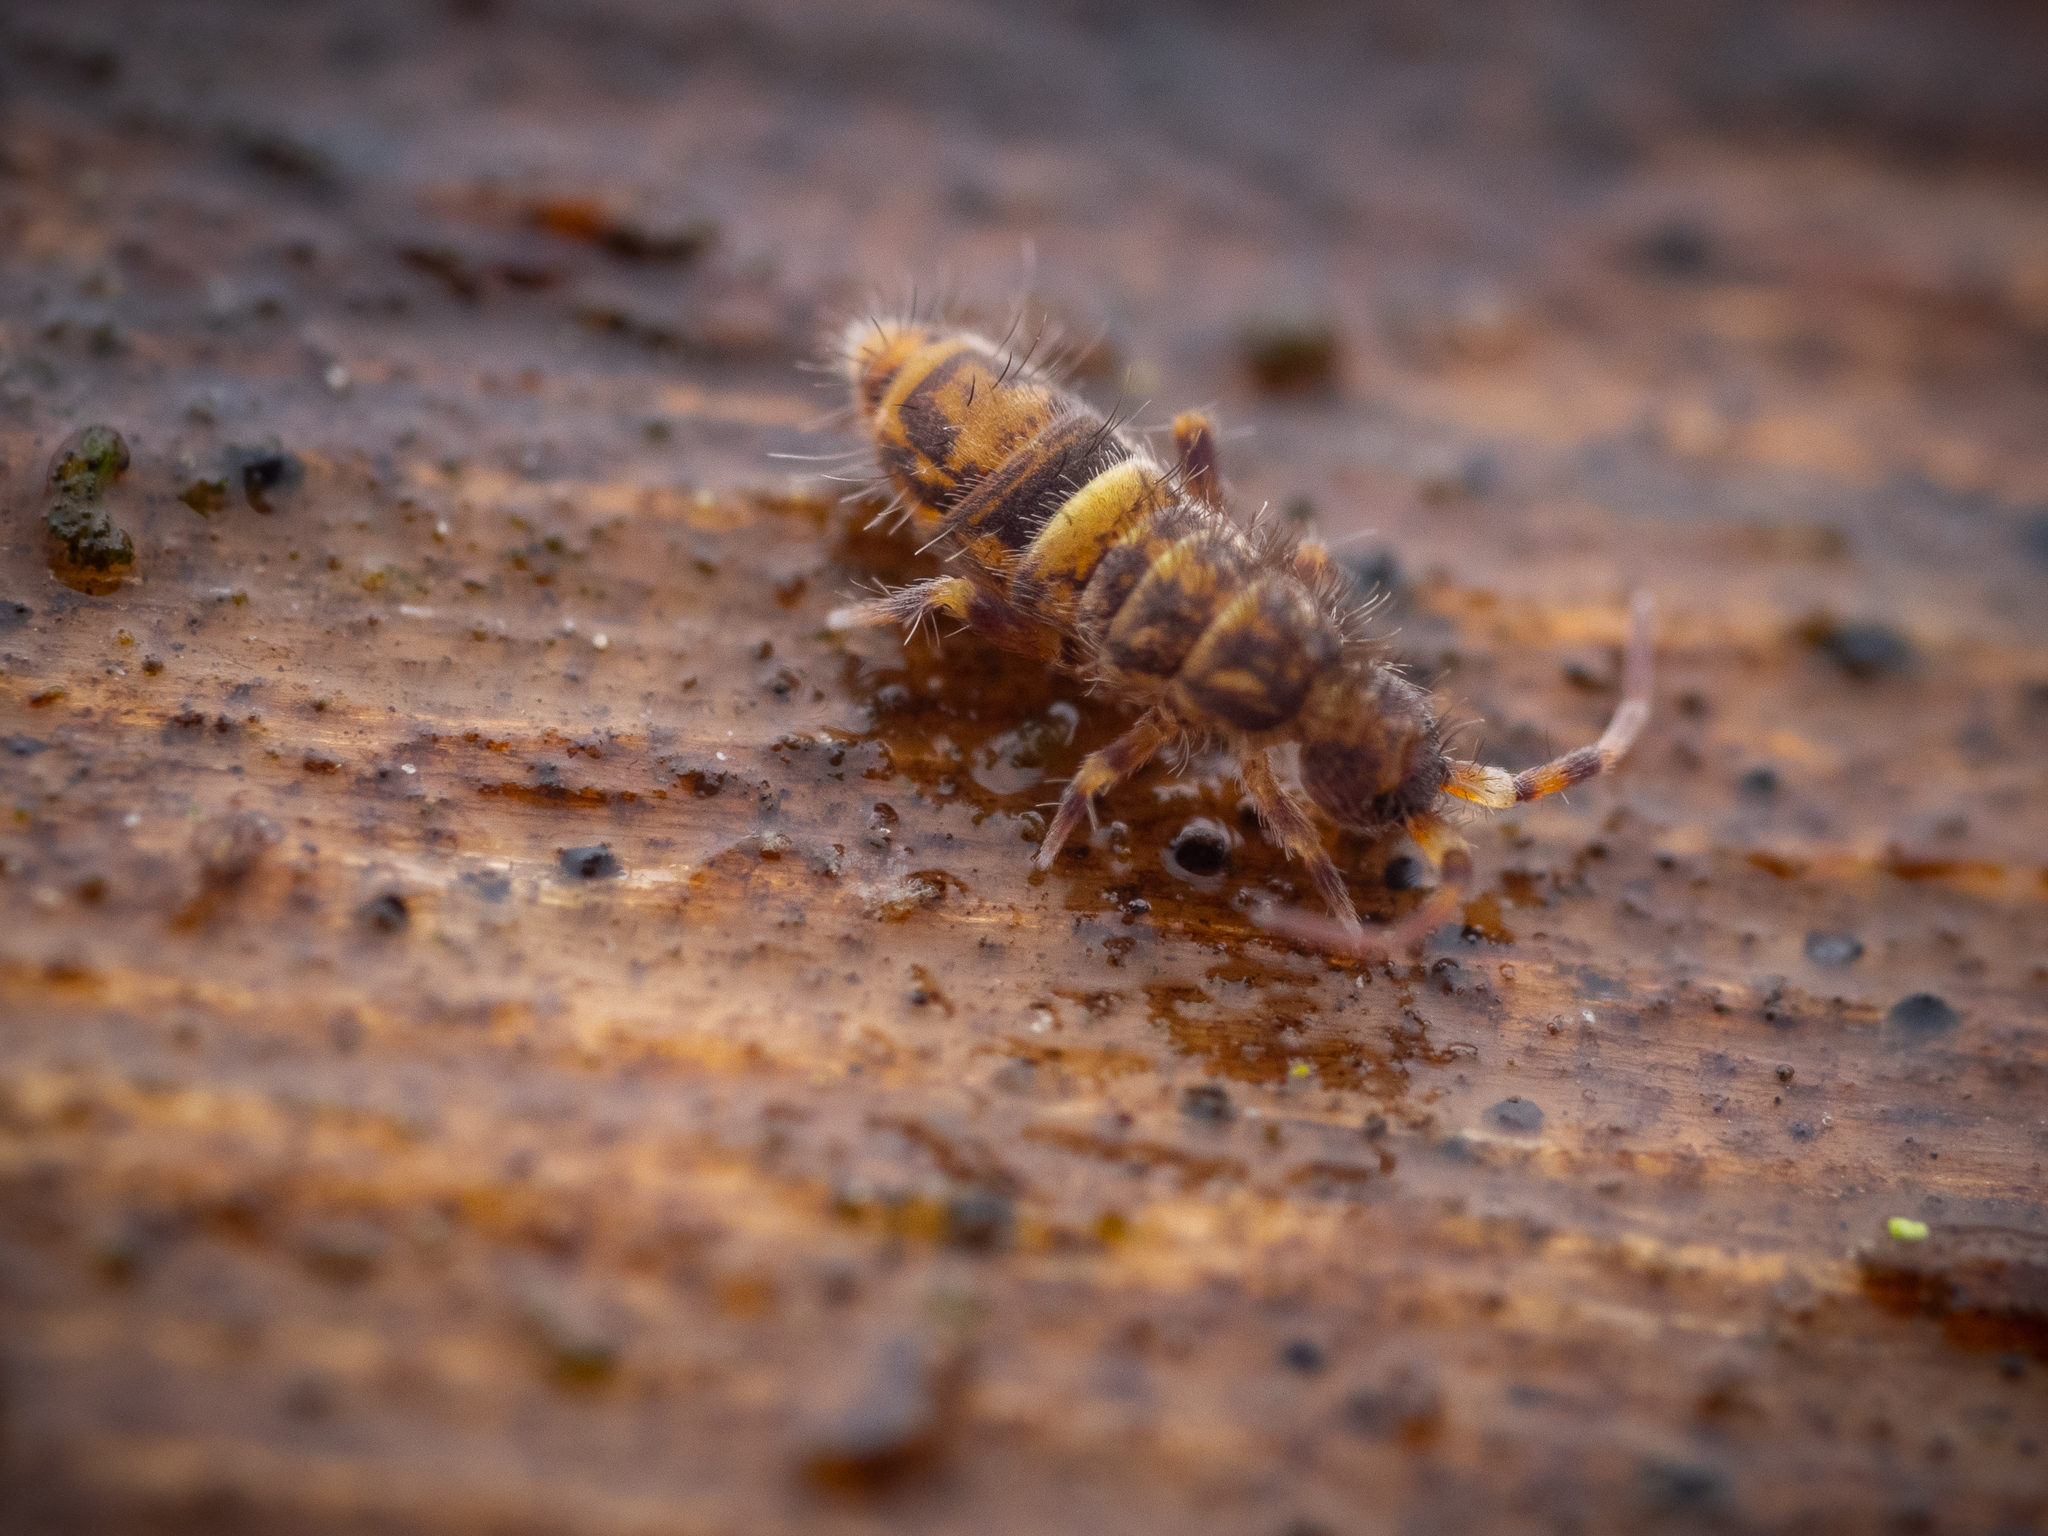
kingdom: Animalia
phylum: Arthropoda
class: Collembola
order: Entomobryomorpha
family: Orchesellidae
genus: Orchesella
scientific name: Orchesella cincta
